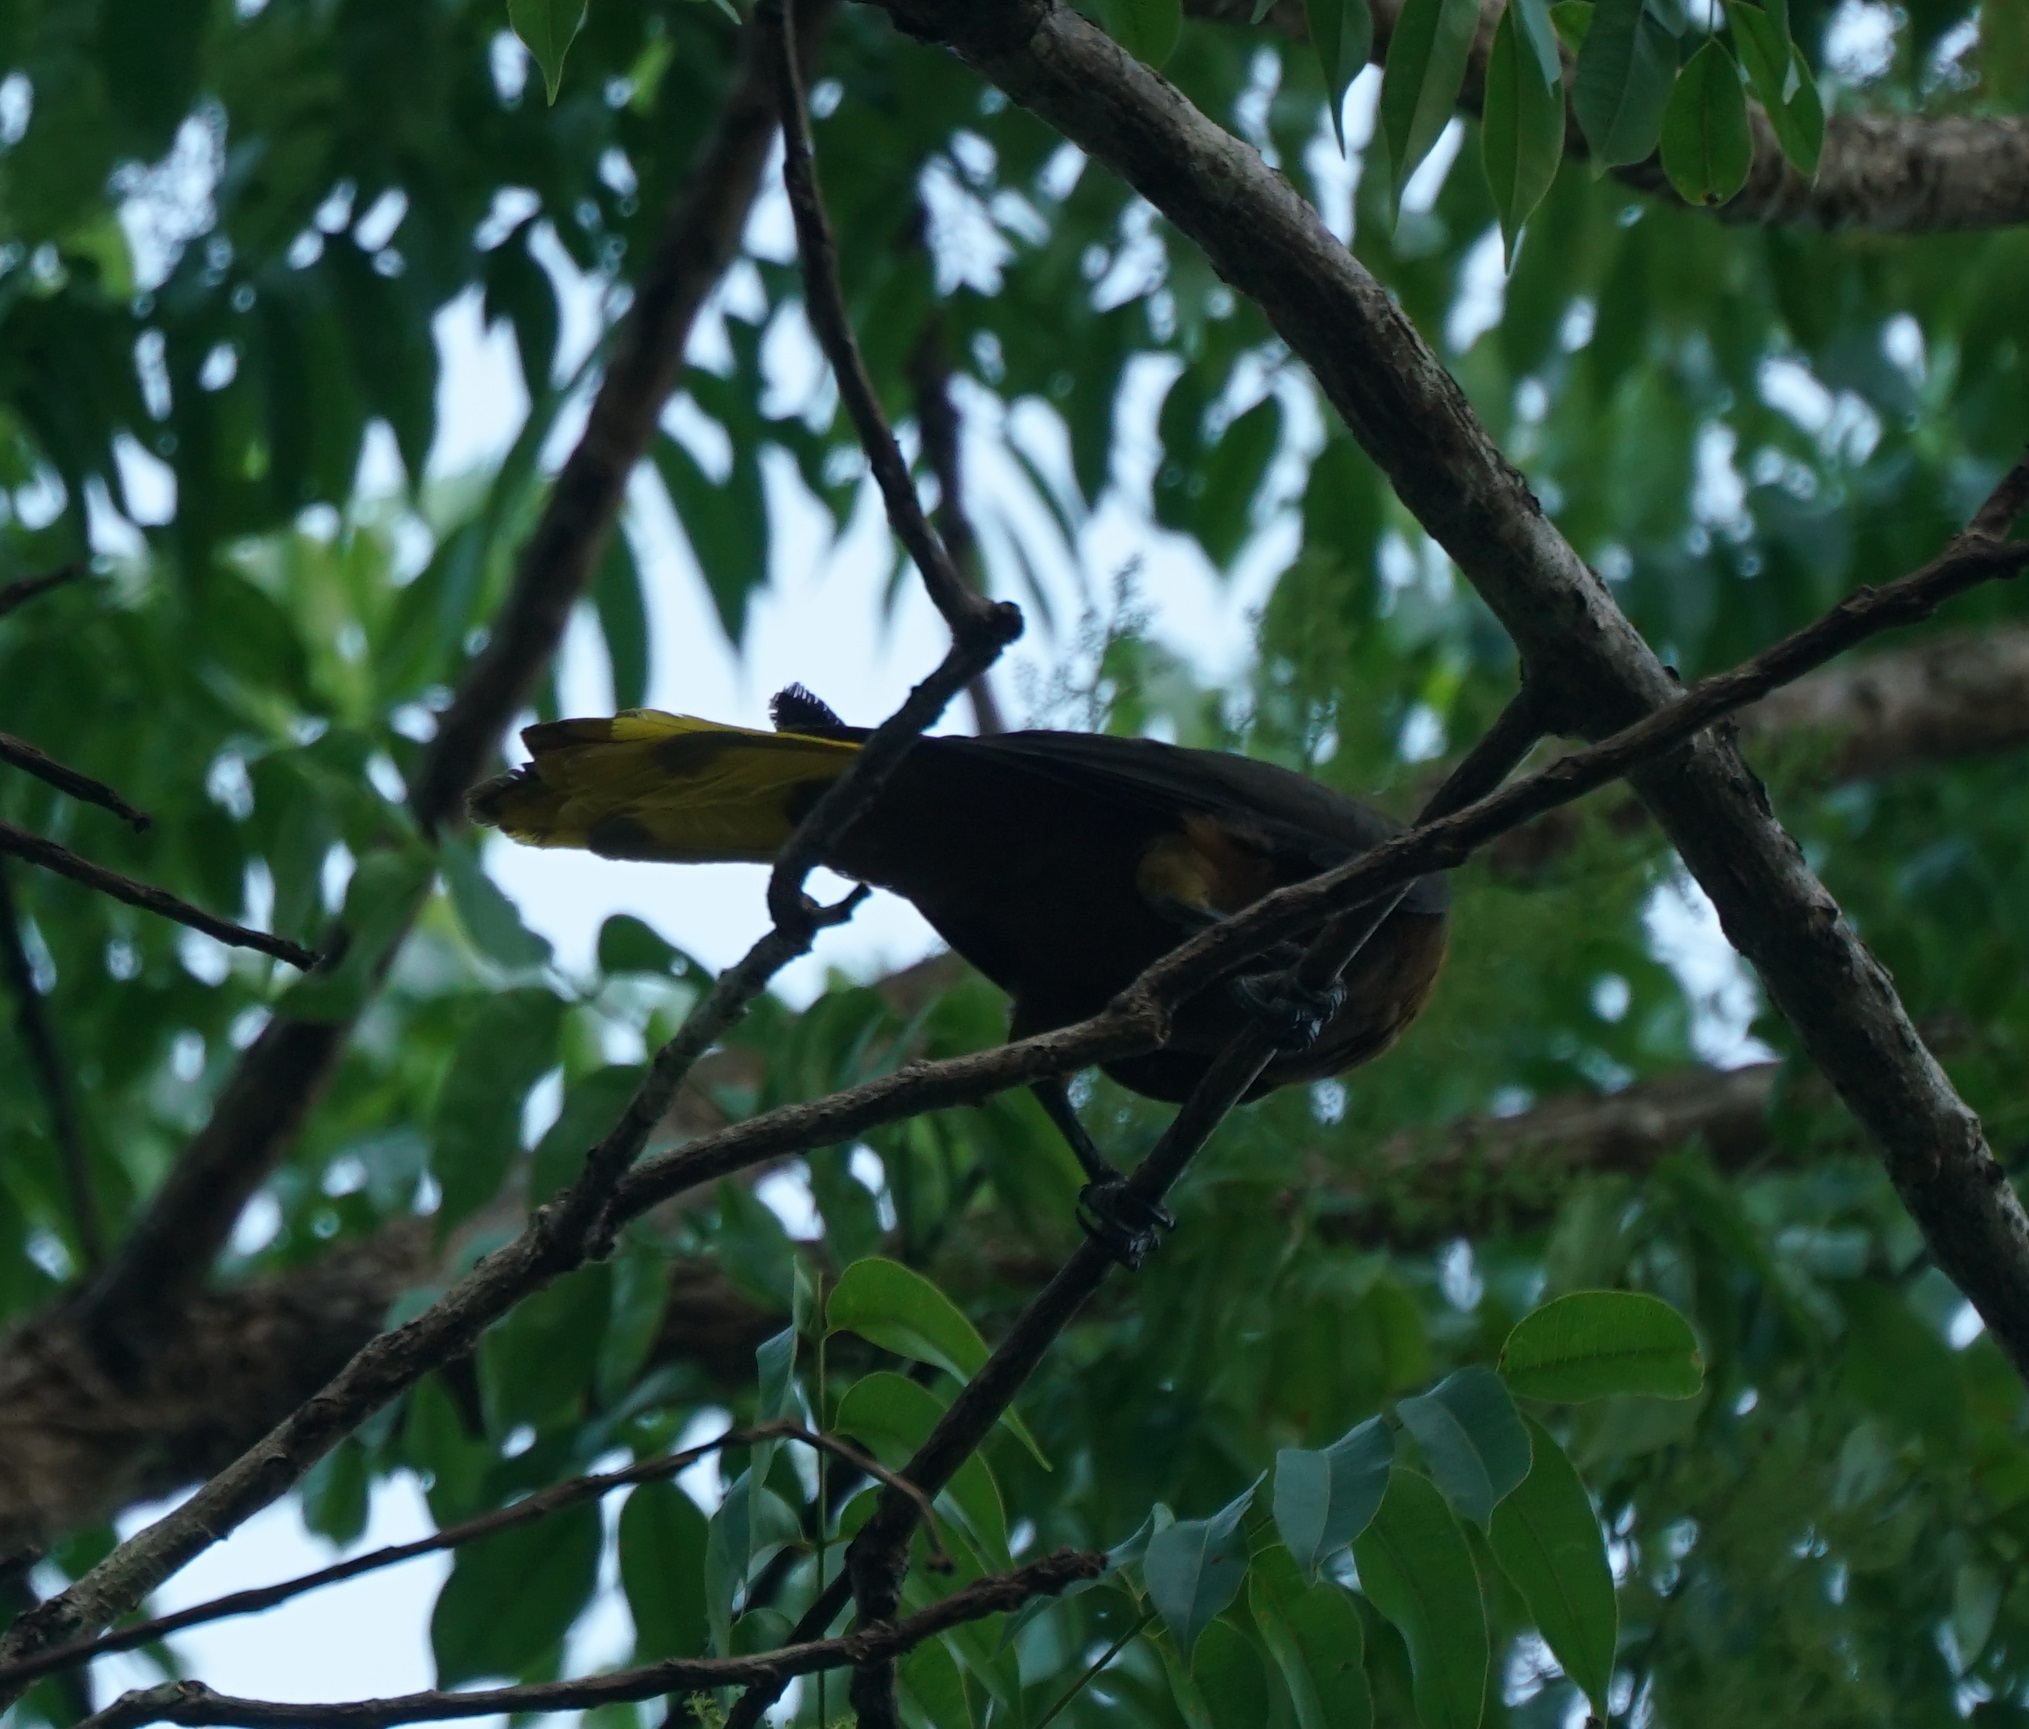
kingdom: Animalia
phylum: Chordata
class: Aves
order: Passeriformes
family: Icteridae
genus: Psarocolius
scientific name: Psarocolius angustifrons
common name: Russet-backed oropendola
